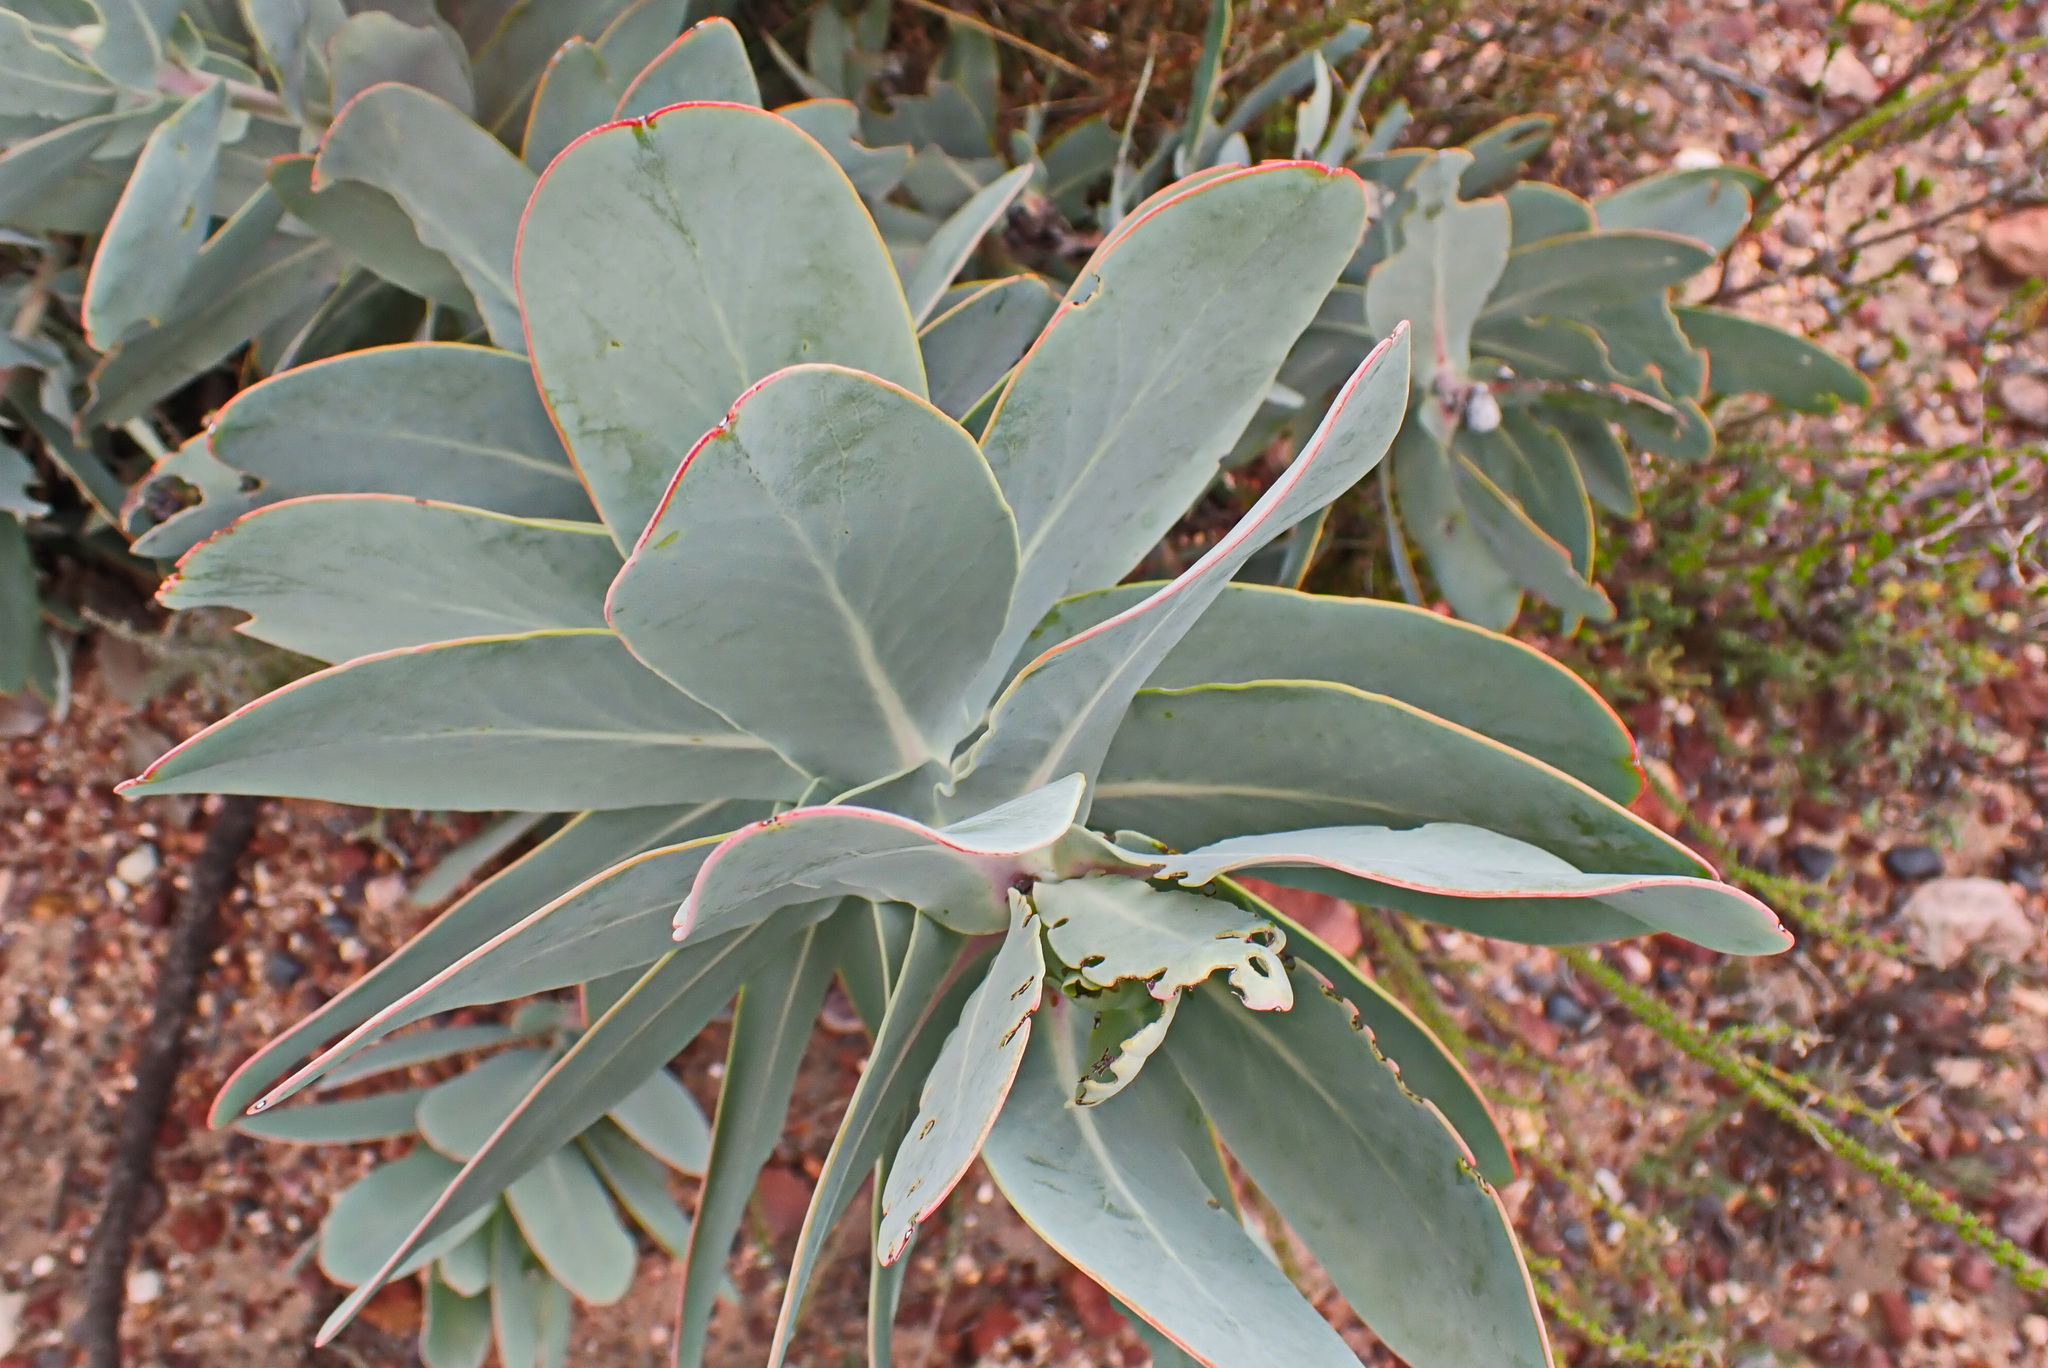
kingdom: Plantae
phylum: Tracheophyta
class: Magnoliopsida
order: Proteales
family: Proteaceae
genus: Protea
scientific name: Protea nitida
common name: Tree protea
